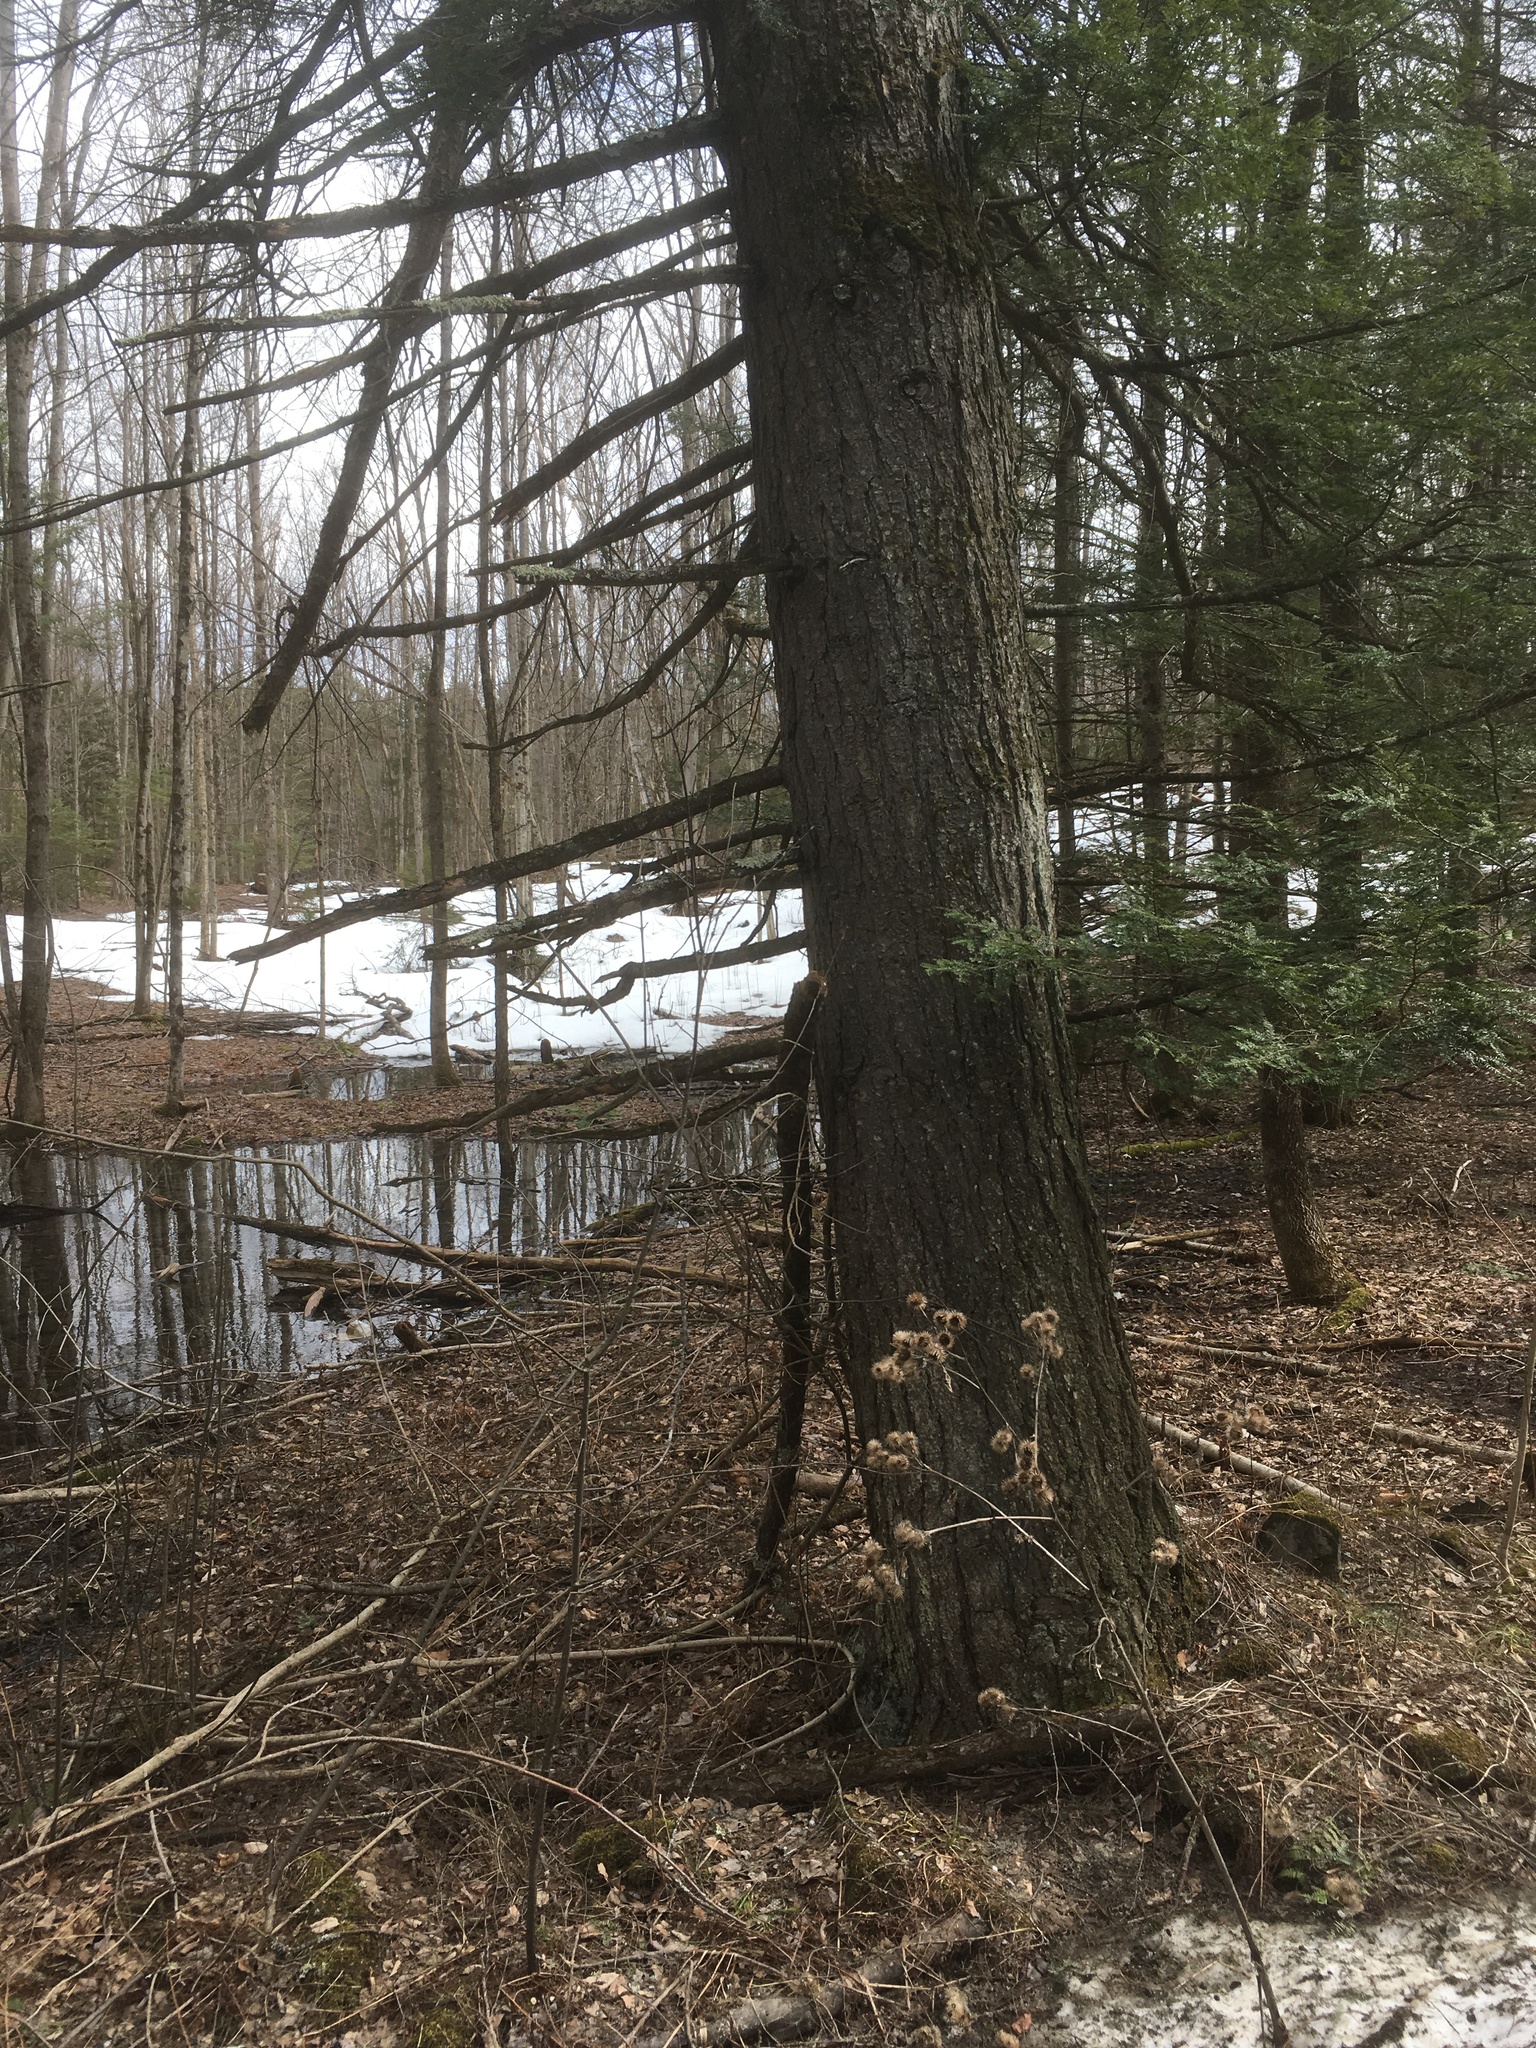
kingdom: Plantae
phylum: Tracheophyta
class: Pinopsida
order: Pinales
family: Pinaceae
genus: Tsuga
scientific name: Tsuga canadensis
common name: Eastern hemlock
